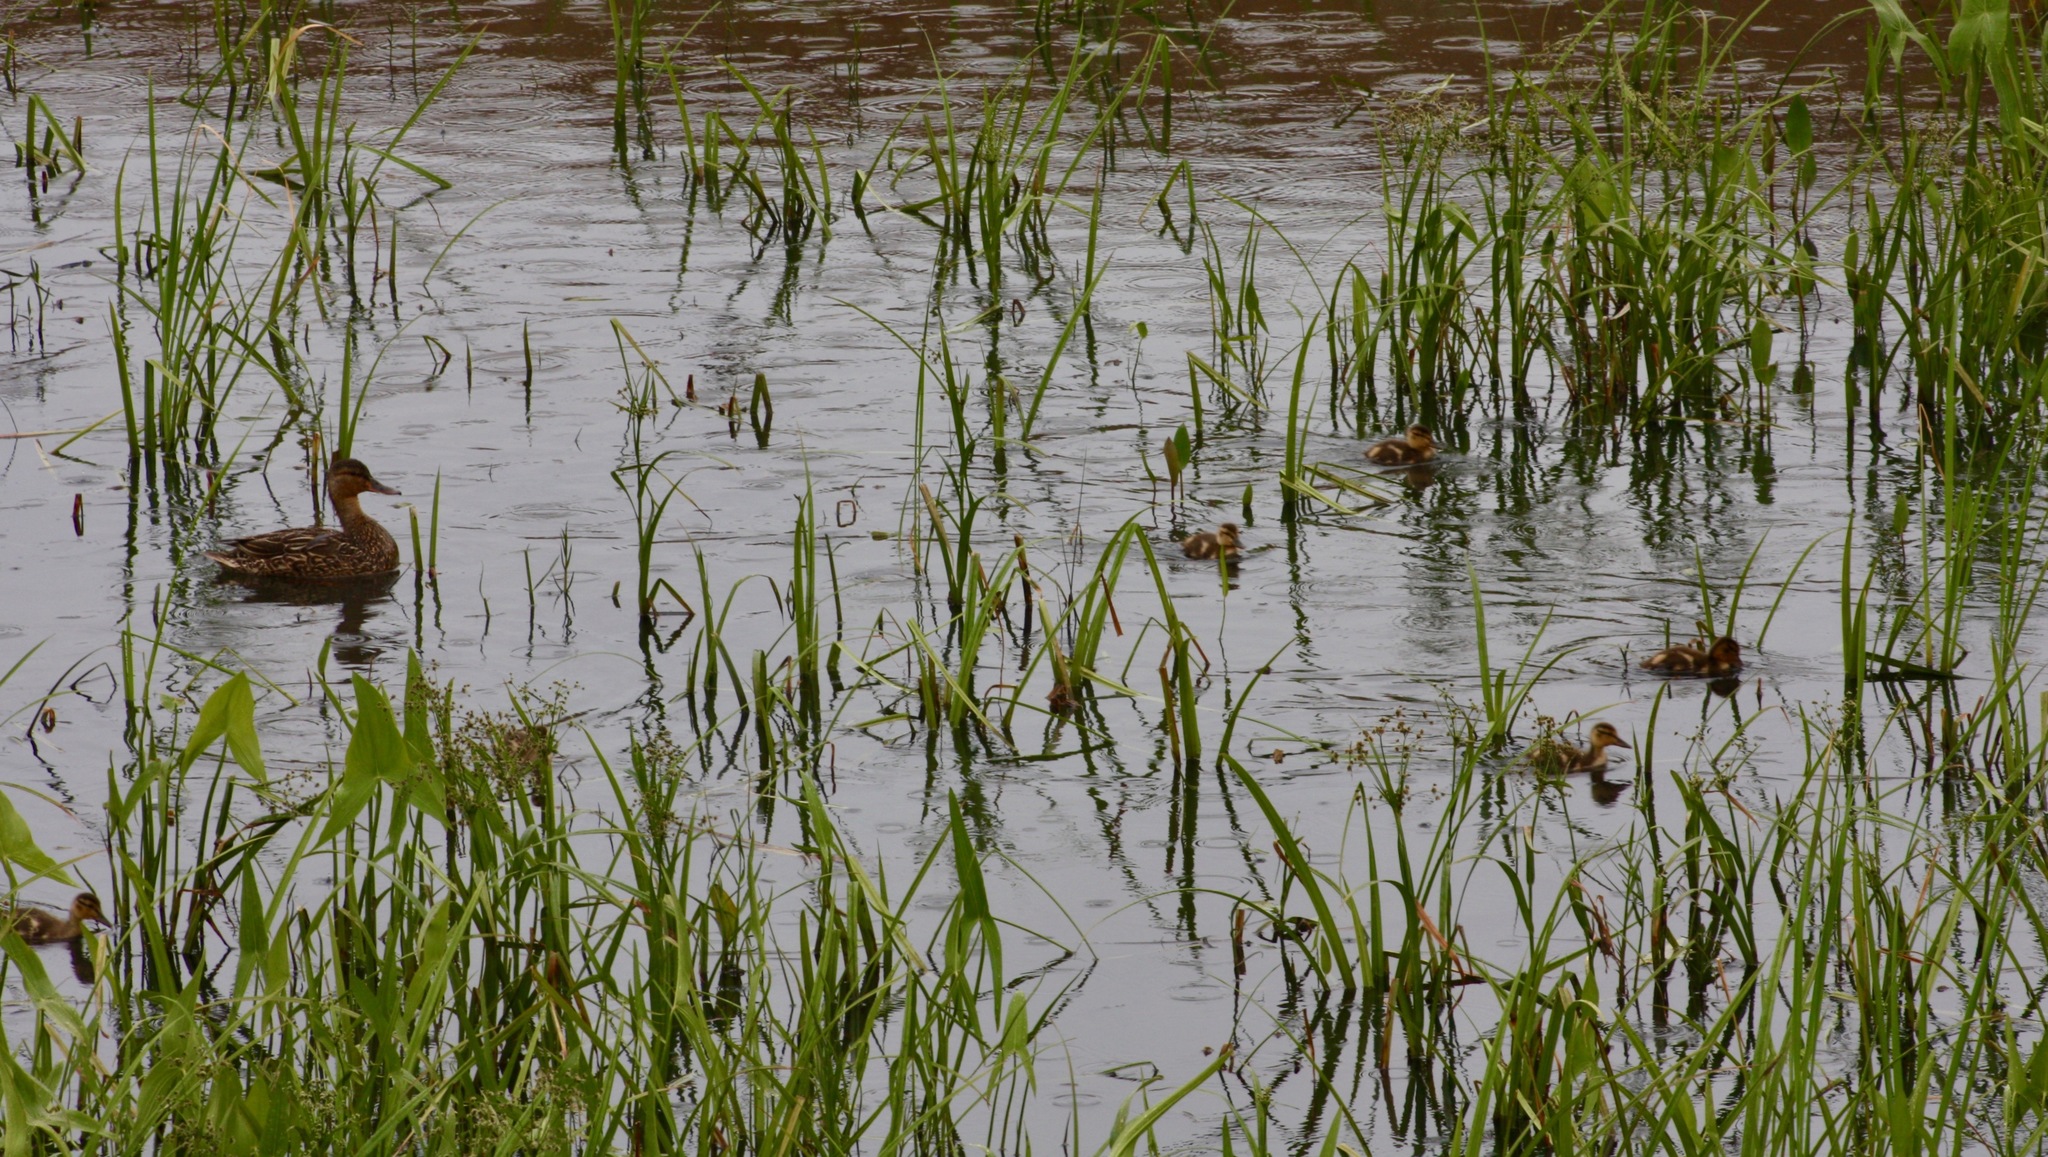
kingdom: Animalia
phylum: Chordata
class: Aves
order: Anseriformes
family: Anatidae
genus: Anas
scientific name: Anas platyrhynchos
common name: Mallard
